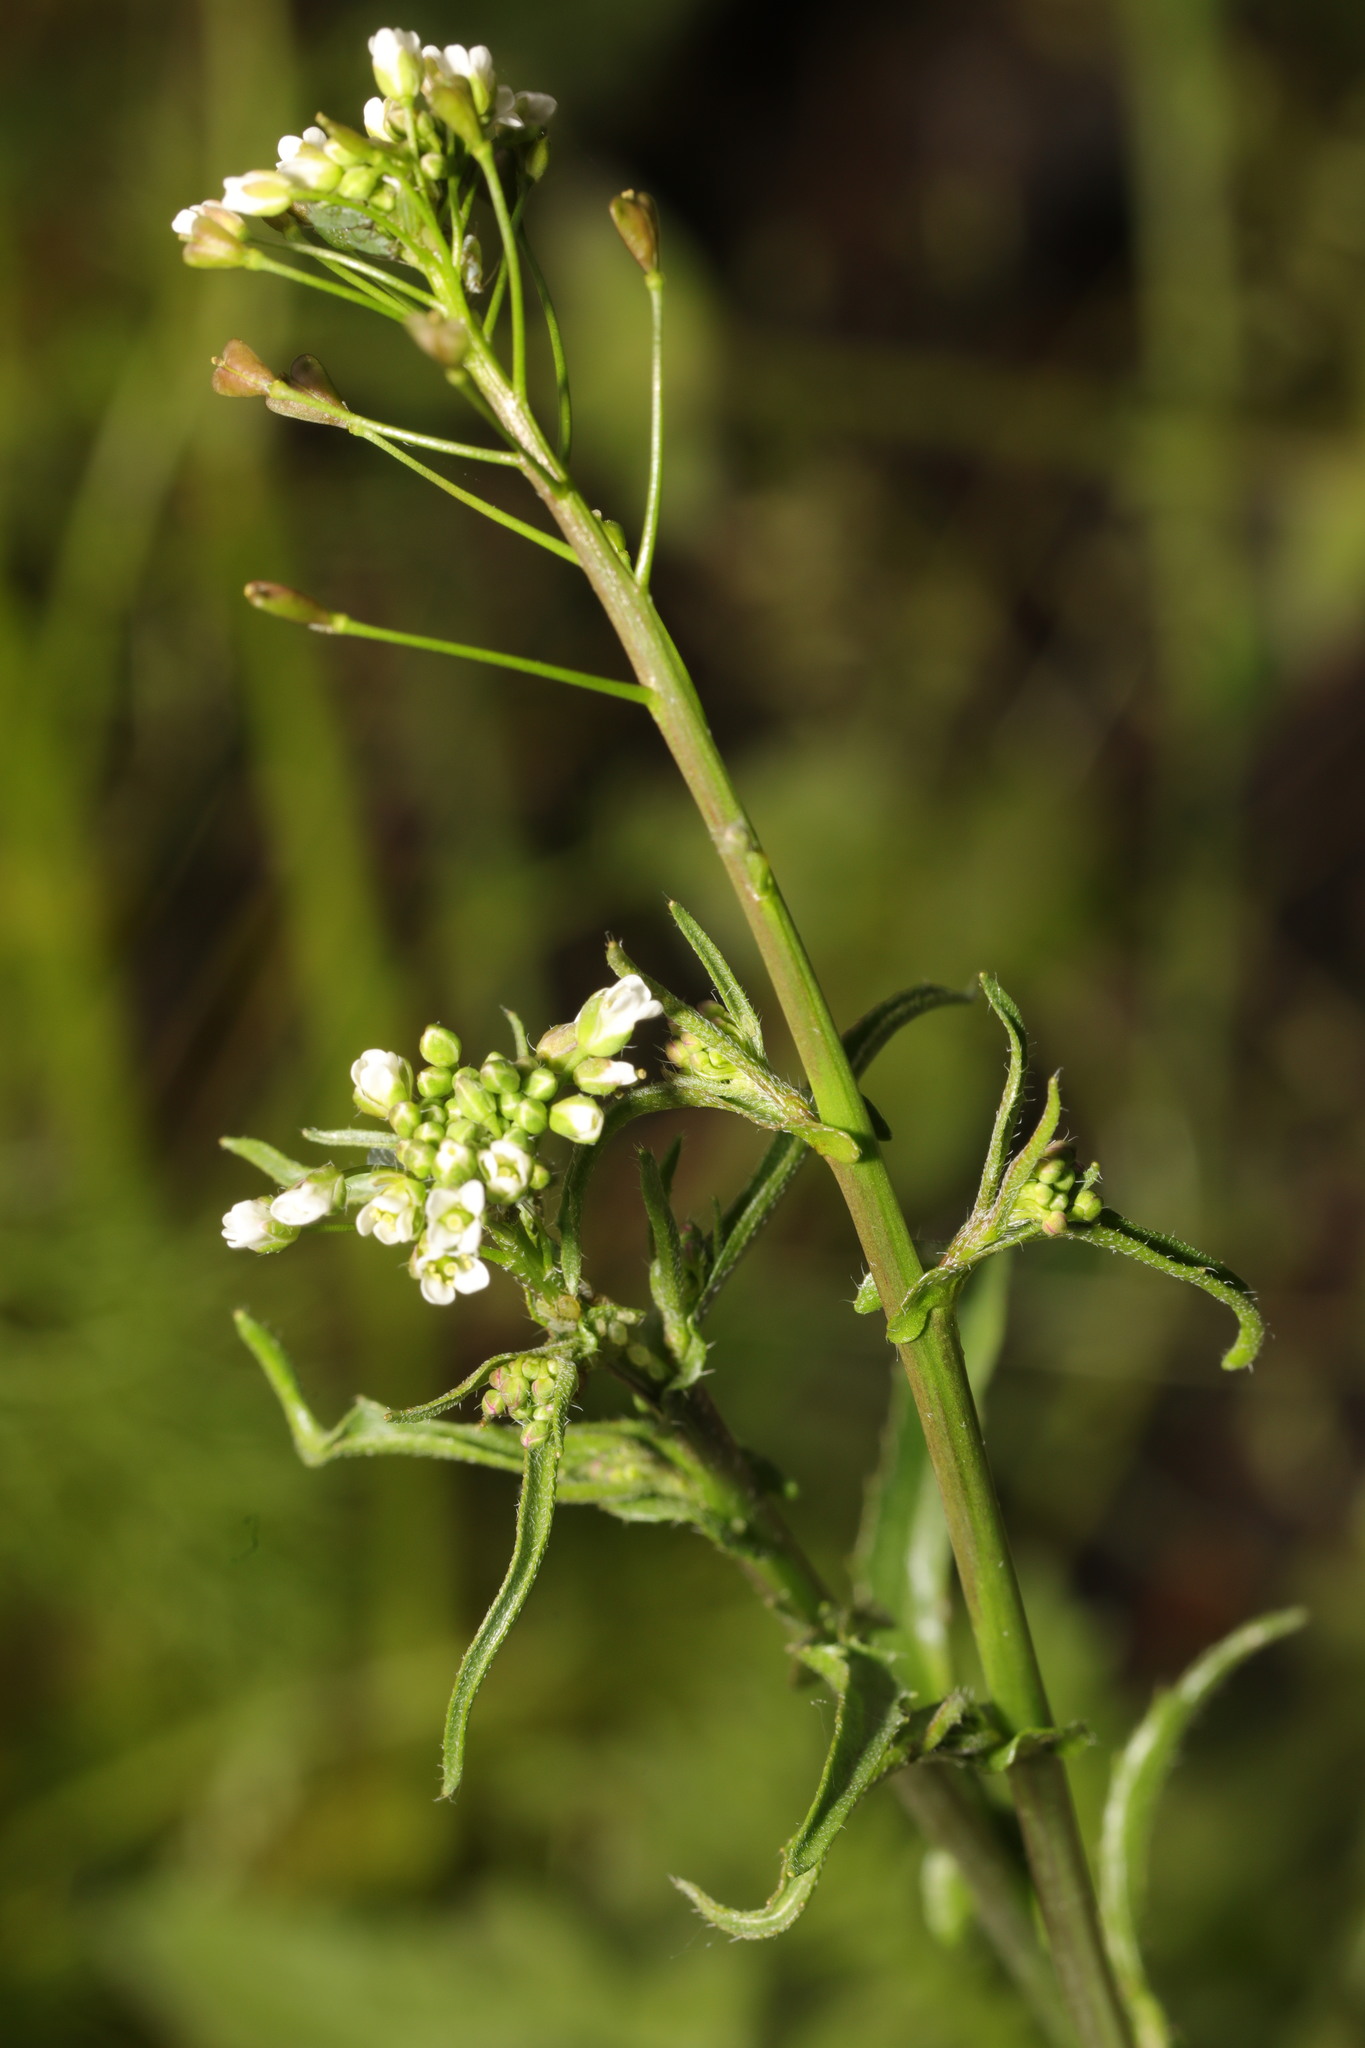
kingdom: Plantae
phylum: Tracheophyta
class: Magnoliopsida
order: Brassicales
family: Brassicaceae
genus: Capsella
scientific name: Capsella bursa-pastoris
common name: Shepherd's purse
